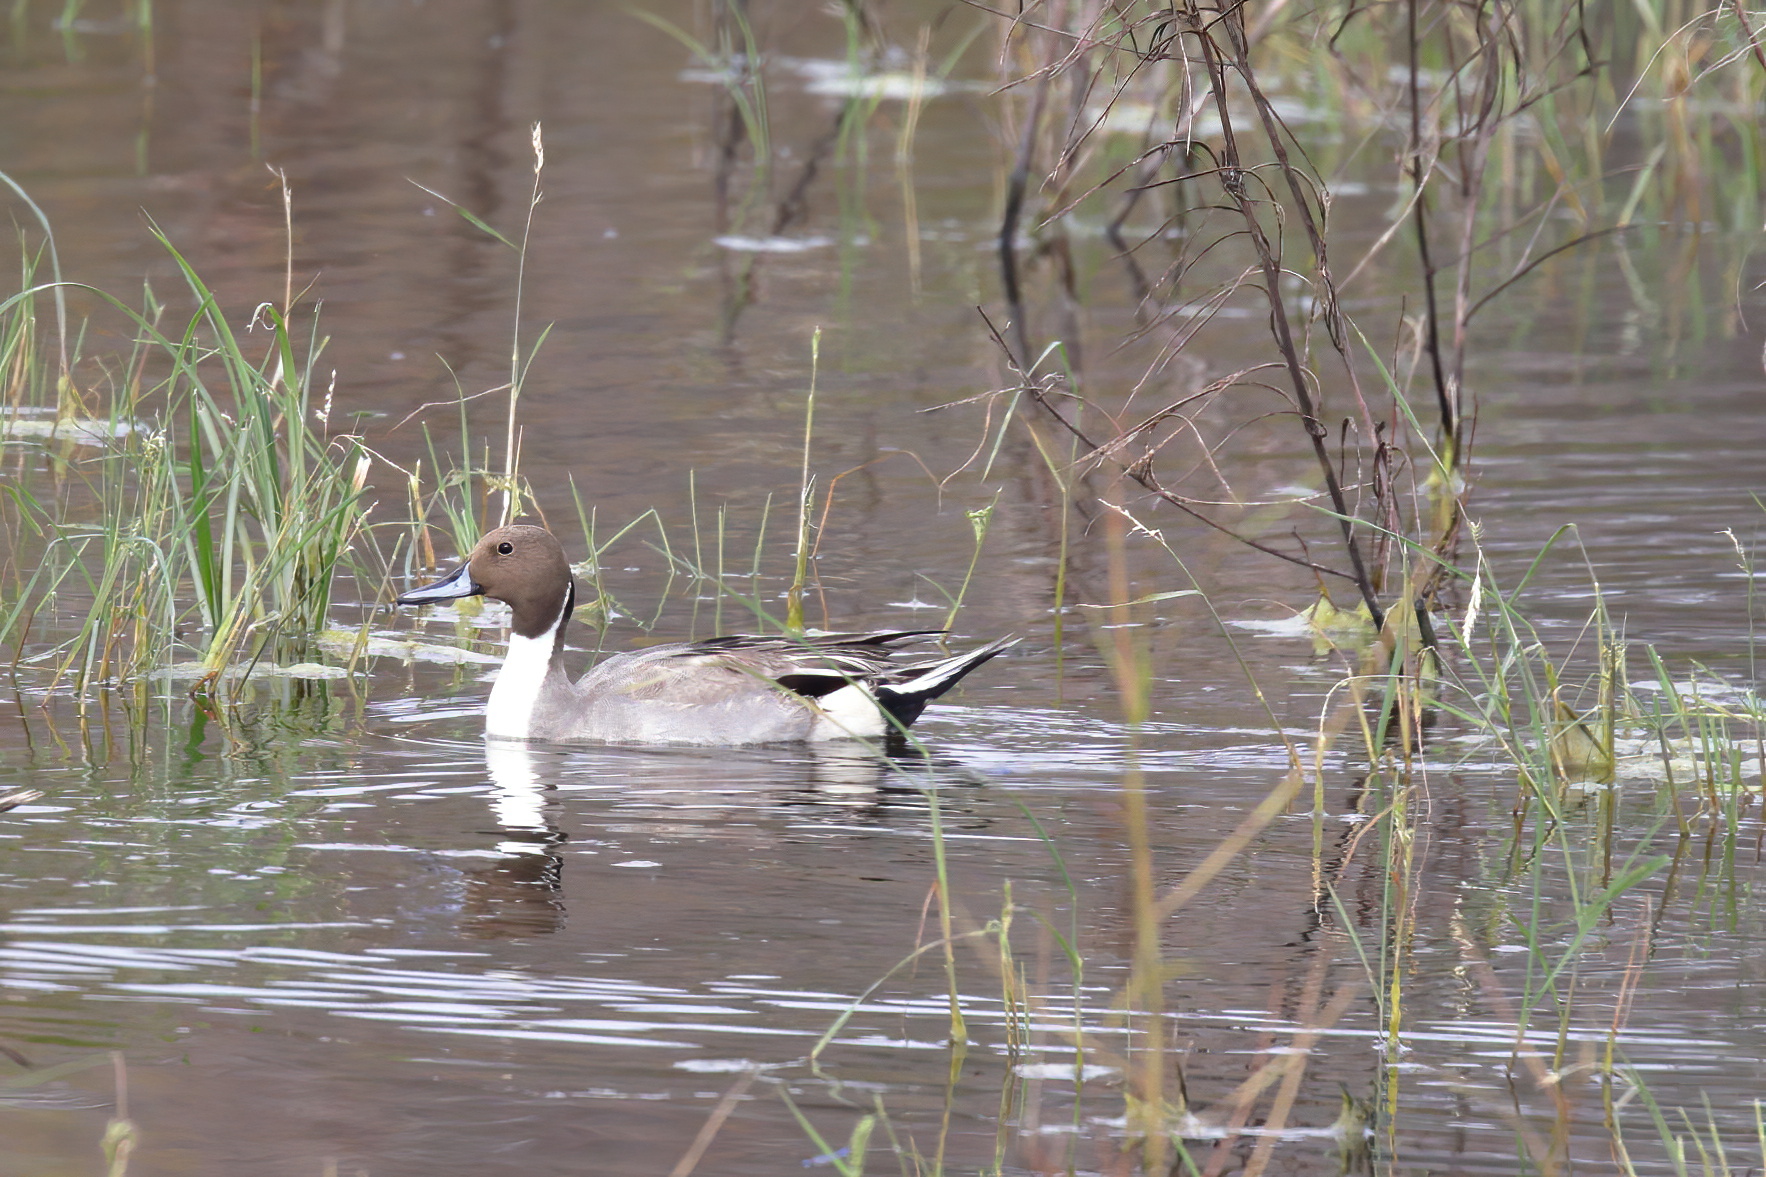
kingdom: Animalia
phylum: Chordata
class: Aves
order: Anseriformes
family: Anatidae
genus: Anas
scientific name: Anas acuta
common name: Northern pintail
